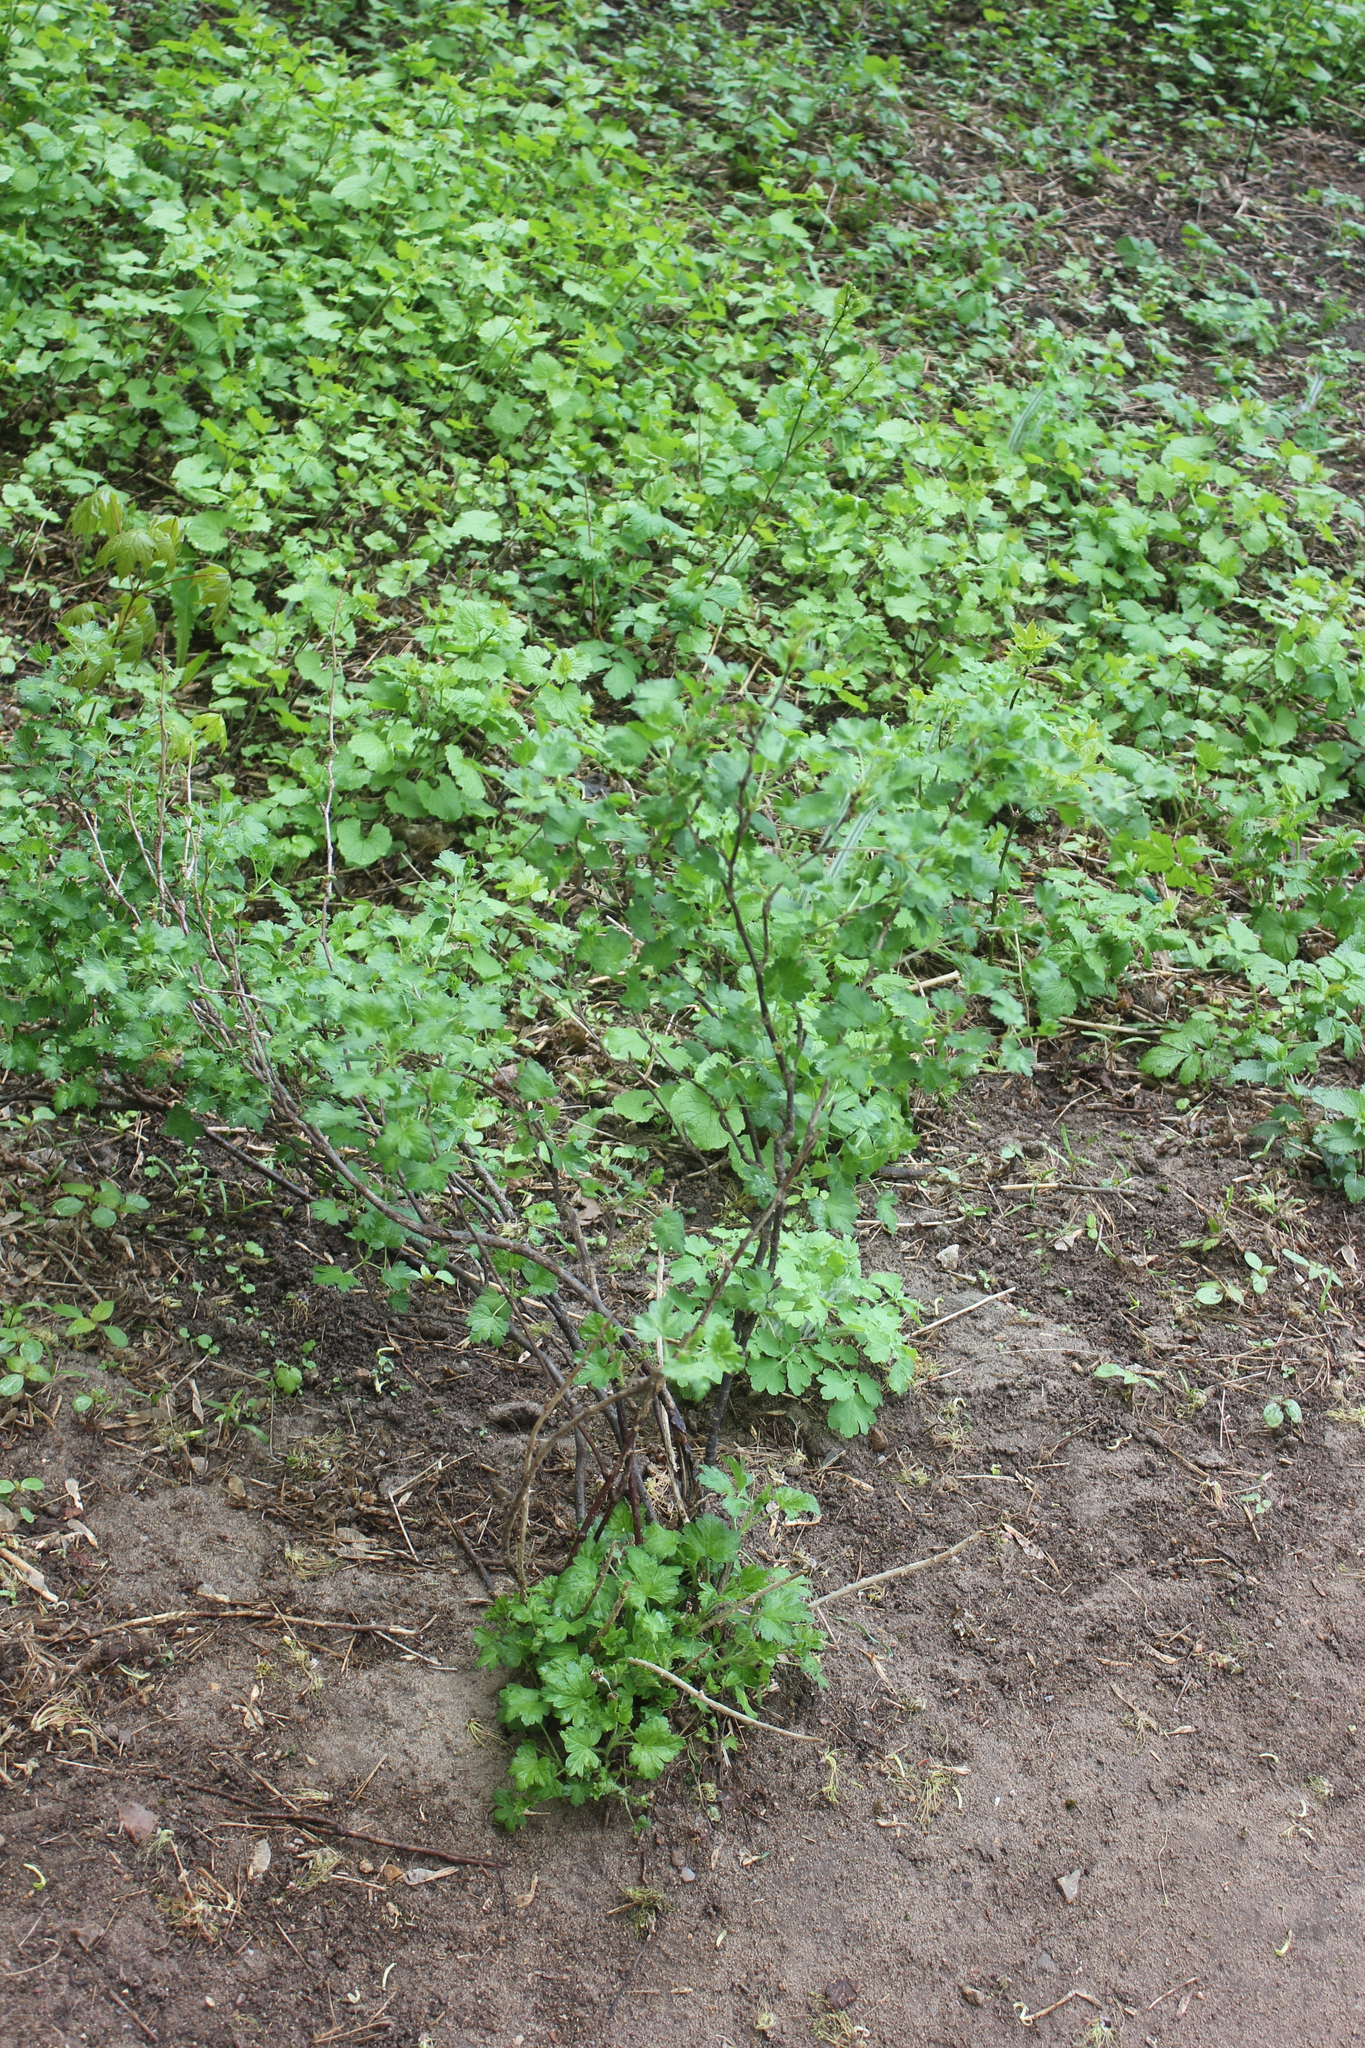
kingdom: Plantae
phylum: Tracheophyta
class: Magnoliopsida
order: Saxifragales
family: Grossulariaceae
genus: Ribes
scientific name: Ribes uva-crispa
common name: Gooseberry
